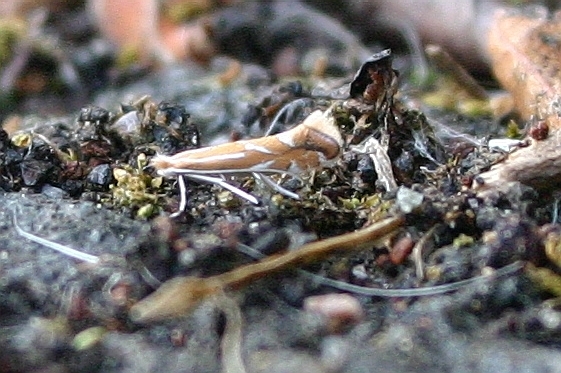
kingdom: Animalia
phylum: Arthropoda
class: Insecta
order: Lepidoptera
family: Gracillariidae
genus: Phyllonorycter
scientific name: Phyllonorycter leucographella
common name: Firethorn leaf-miner
